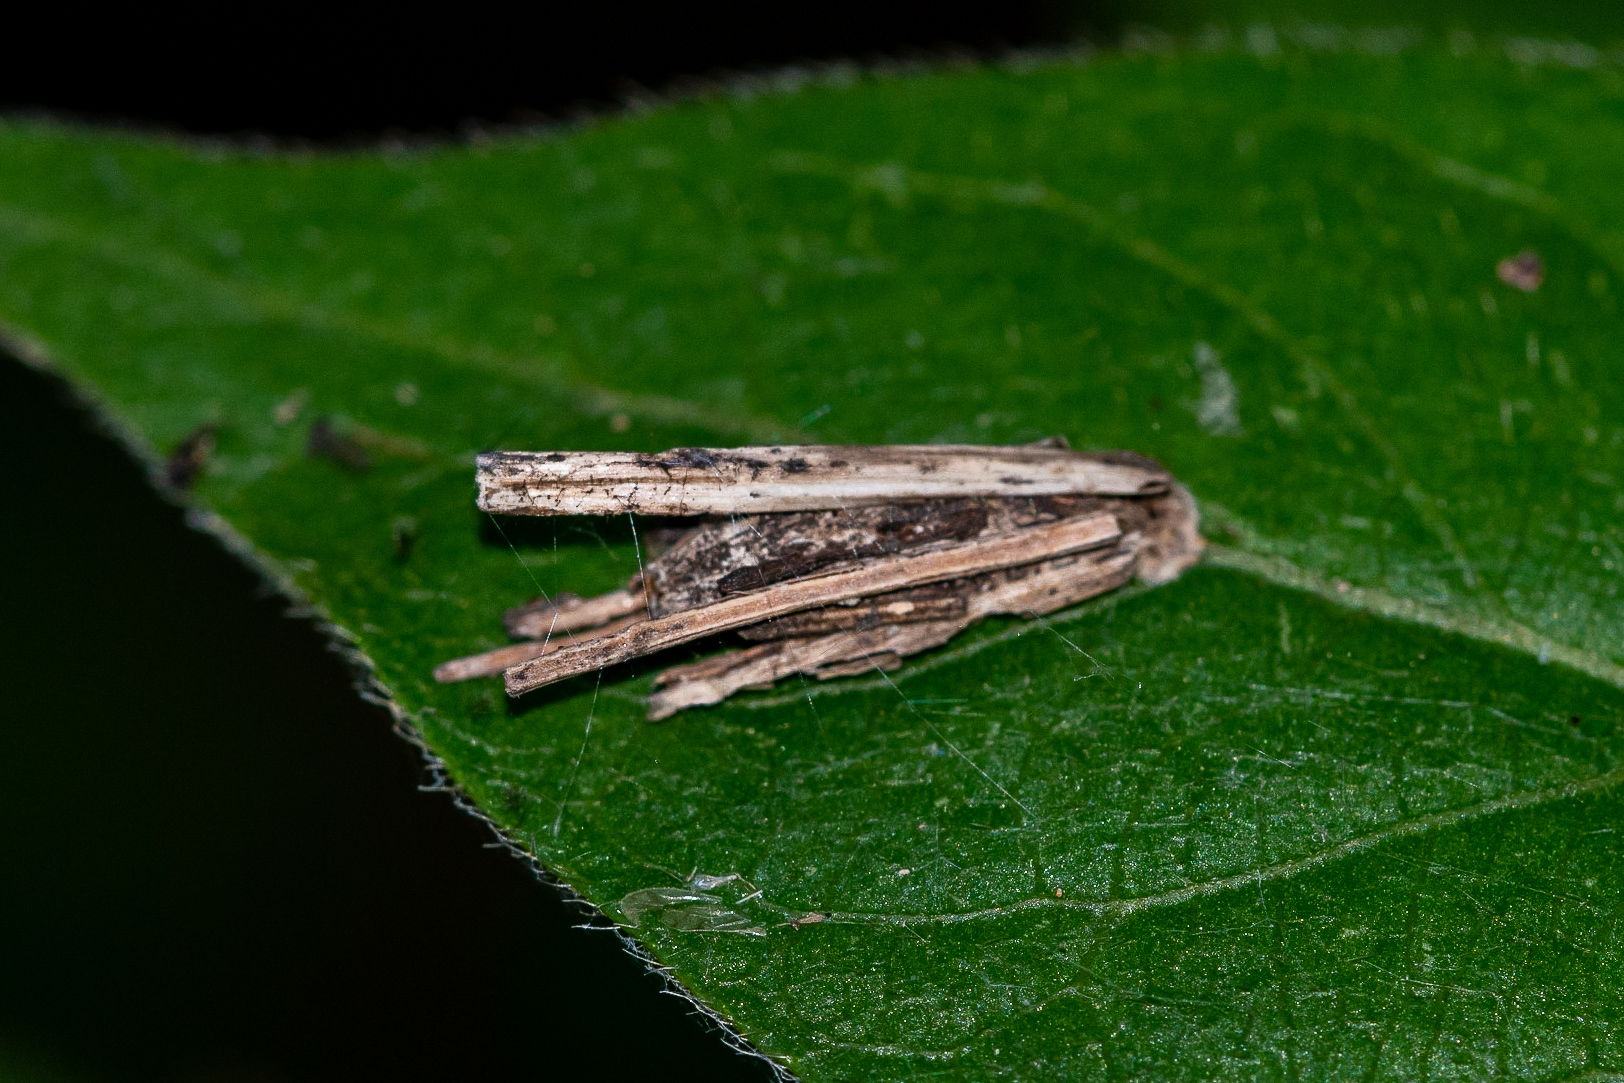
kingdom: Animalia
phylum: Arthropoda
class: Insecta
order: Lepidoptera
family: Psychidae
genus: Psyche
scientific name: Psyche casta
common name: Common sweep
